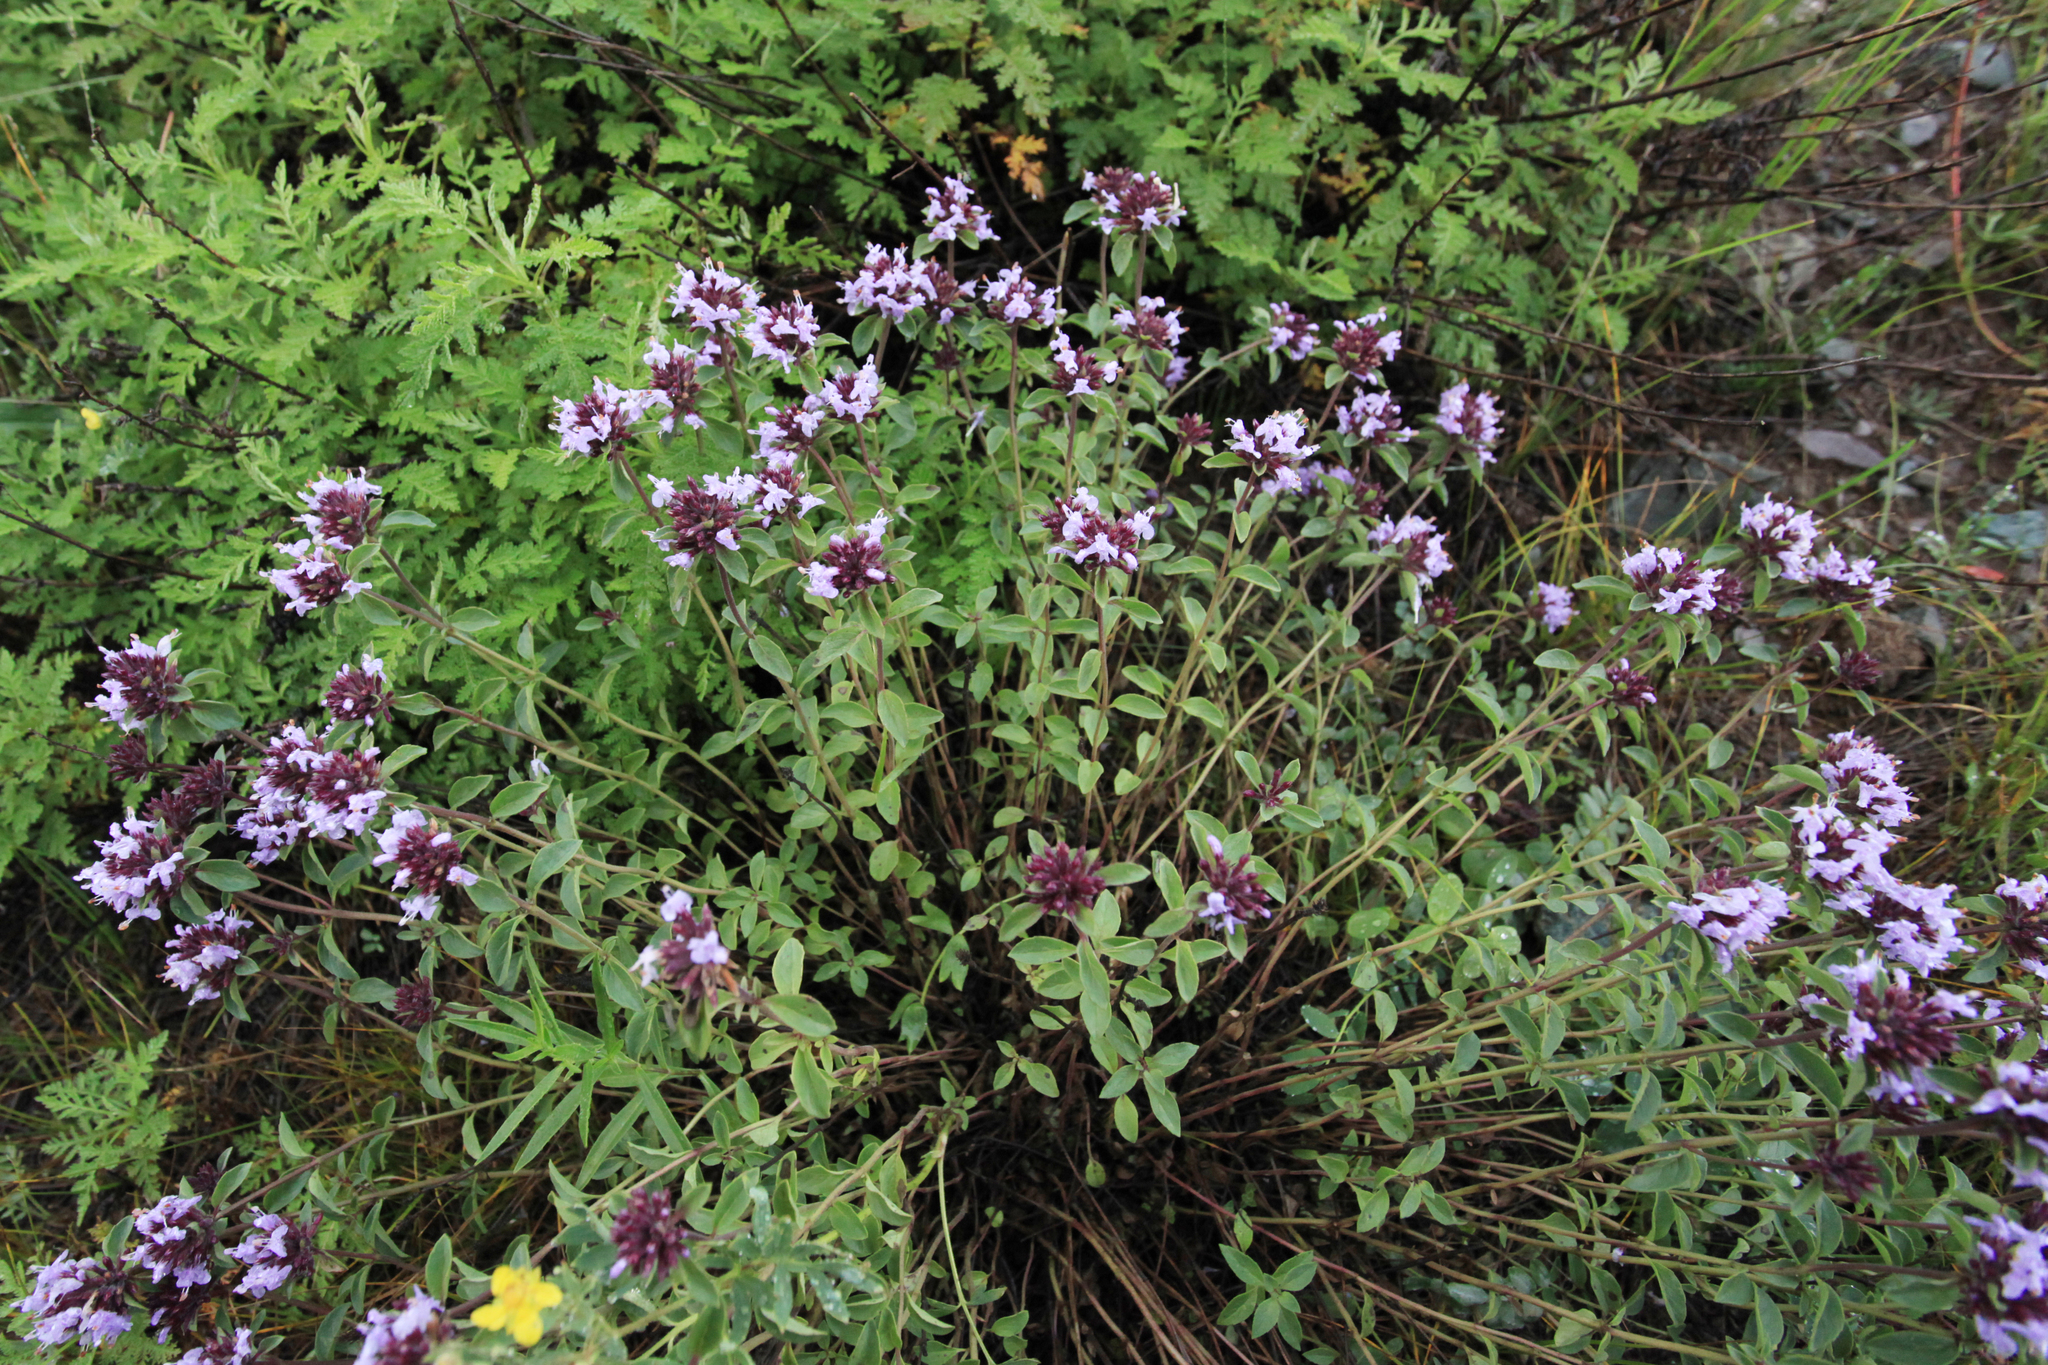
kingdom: Plantae
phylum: Tracheophyta
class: Magnoliopsida
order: Lamiales
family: Lamiaceae
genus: Origanum
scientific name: Origanum vulgare
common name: Wild marjoram
